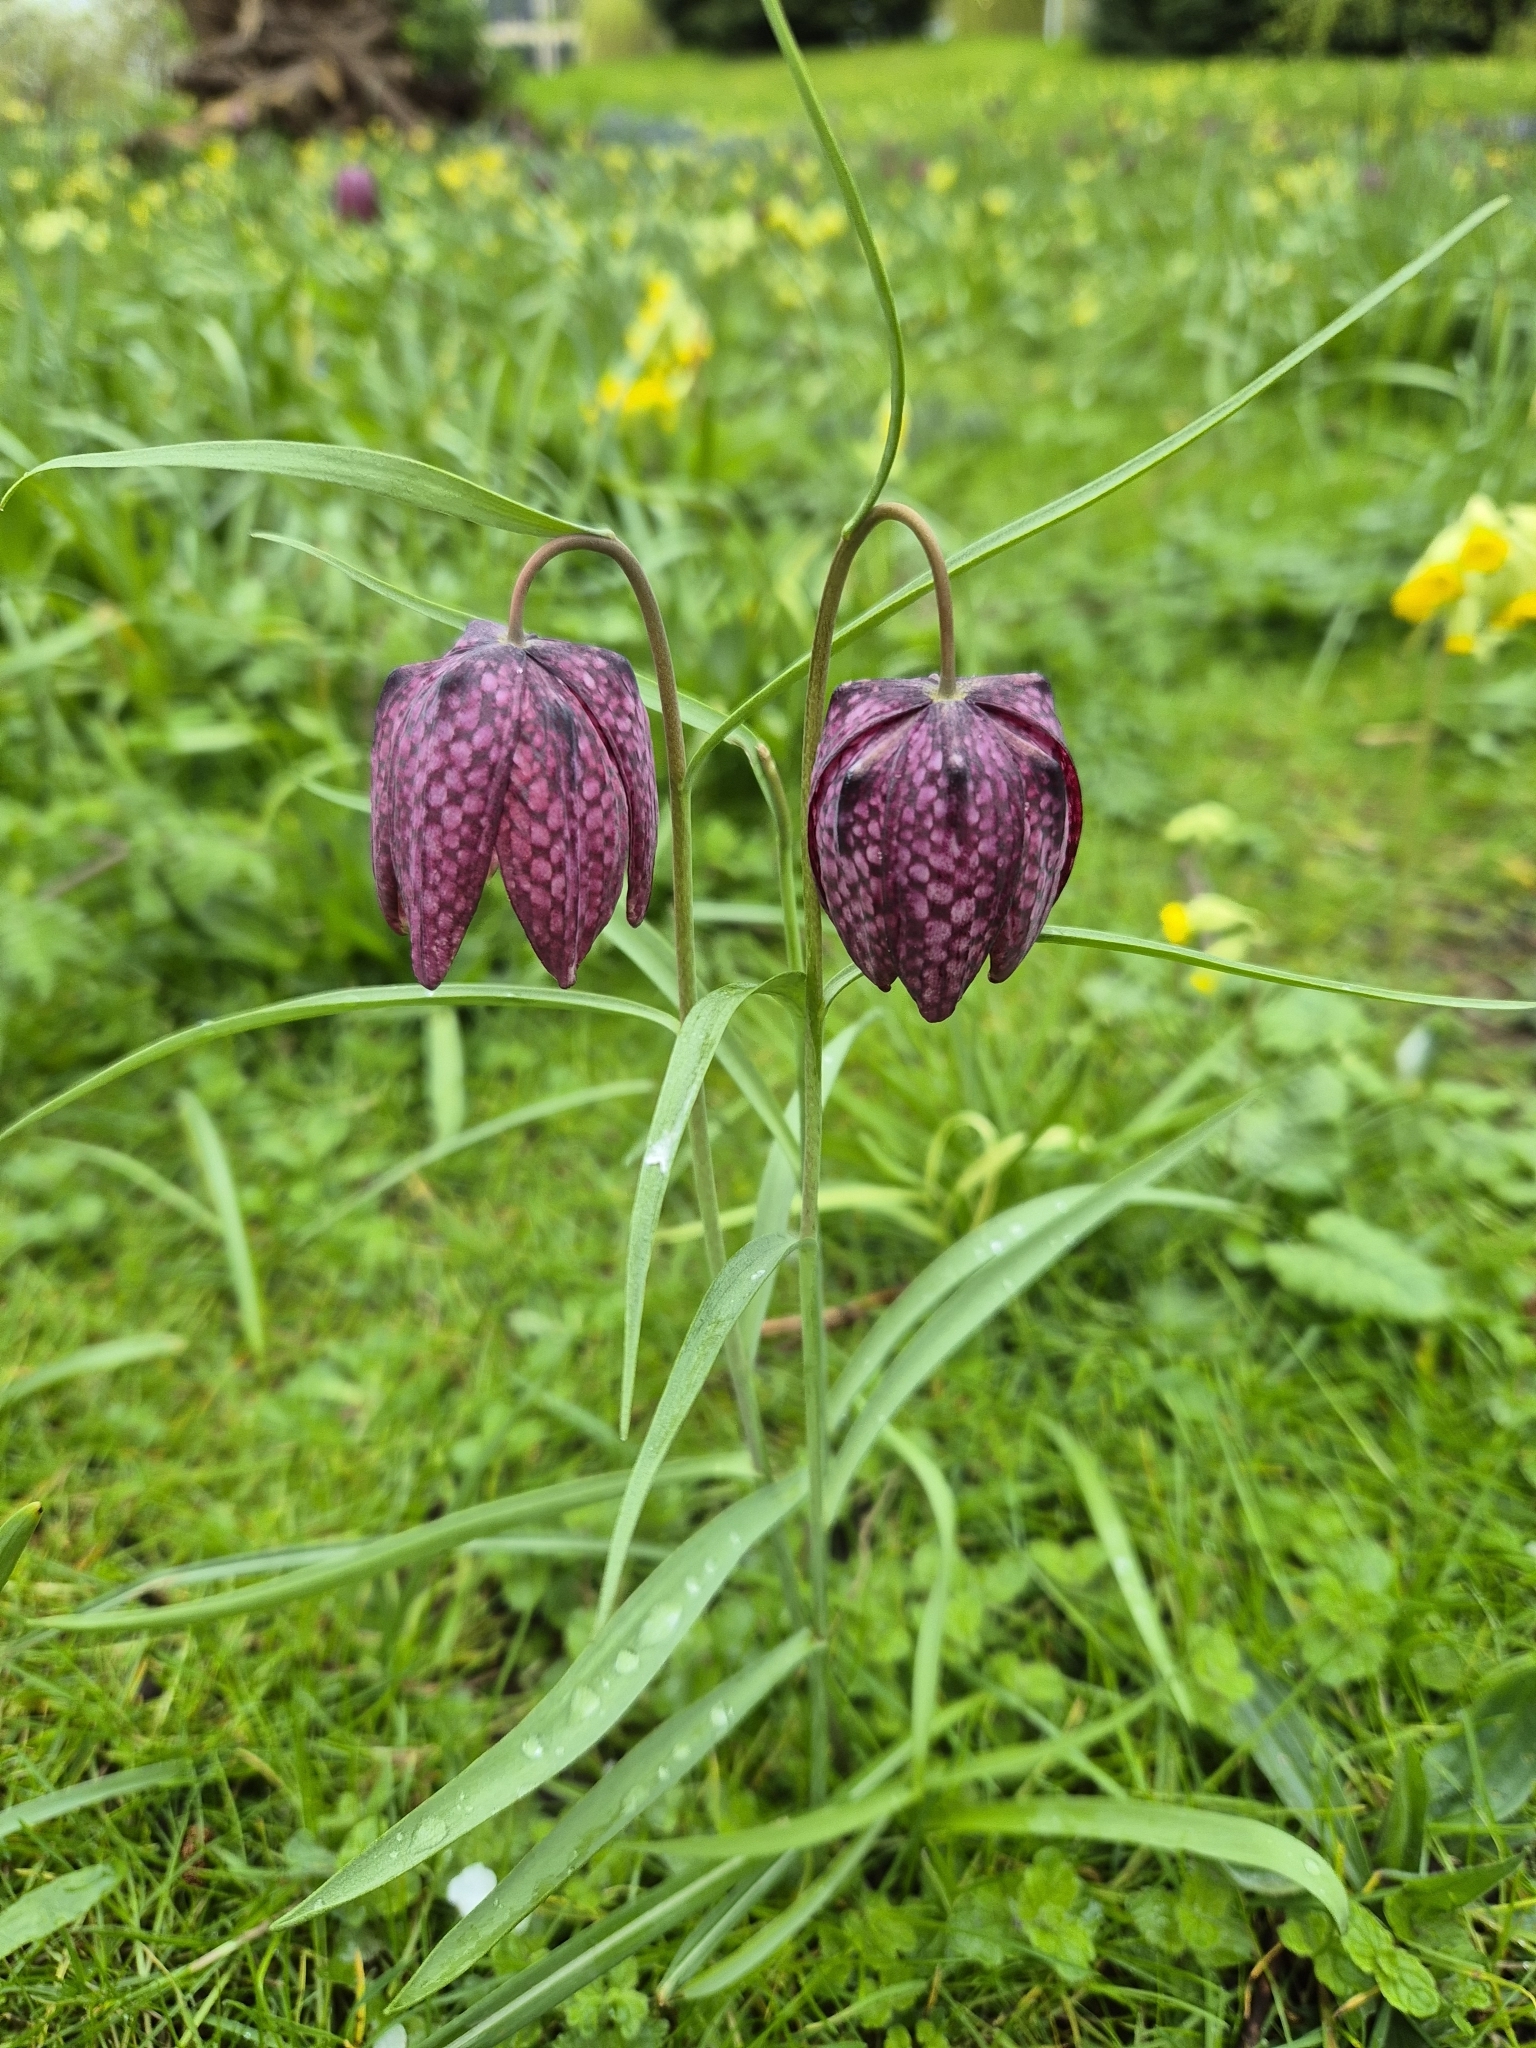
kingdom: Plantae
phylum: Tracheophyta
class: Liliopsida
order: Liliales
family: Liliaceae
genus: Fritillaria
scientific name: Fritillaria meleagris
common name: Fritillary
